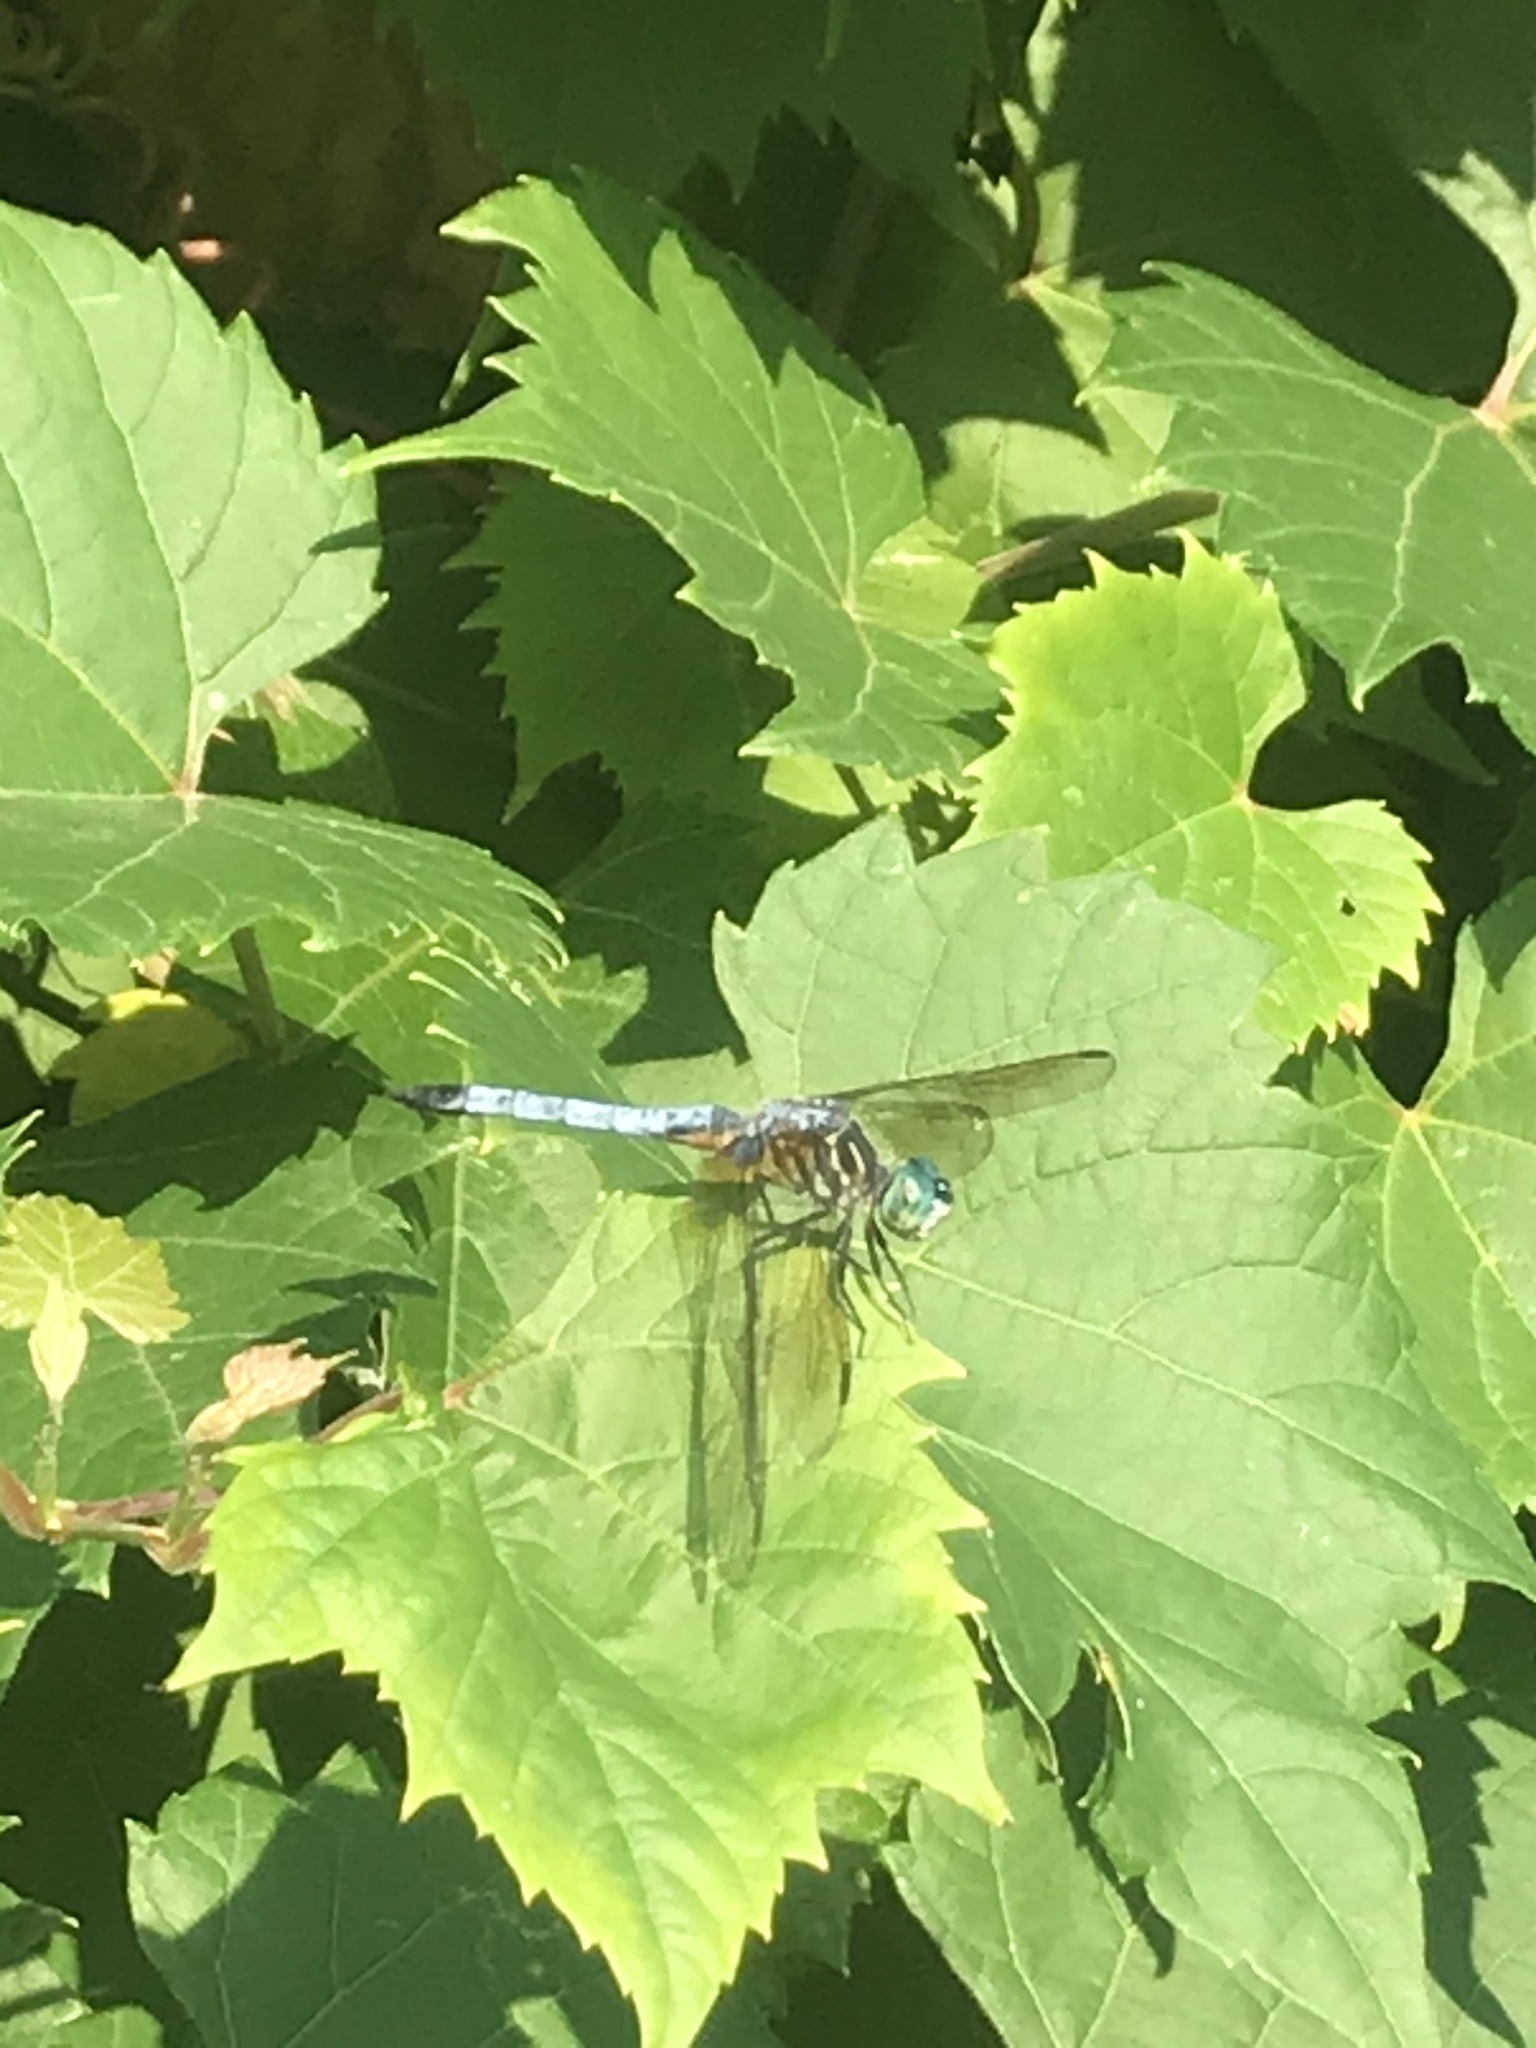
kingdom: Animalia
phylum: Arthropoda
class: Insecta
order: Odonata
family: Libellulidae
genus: Pachydiplax
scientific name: Pachydiplax longipennis
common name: Blue dasher
